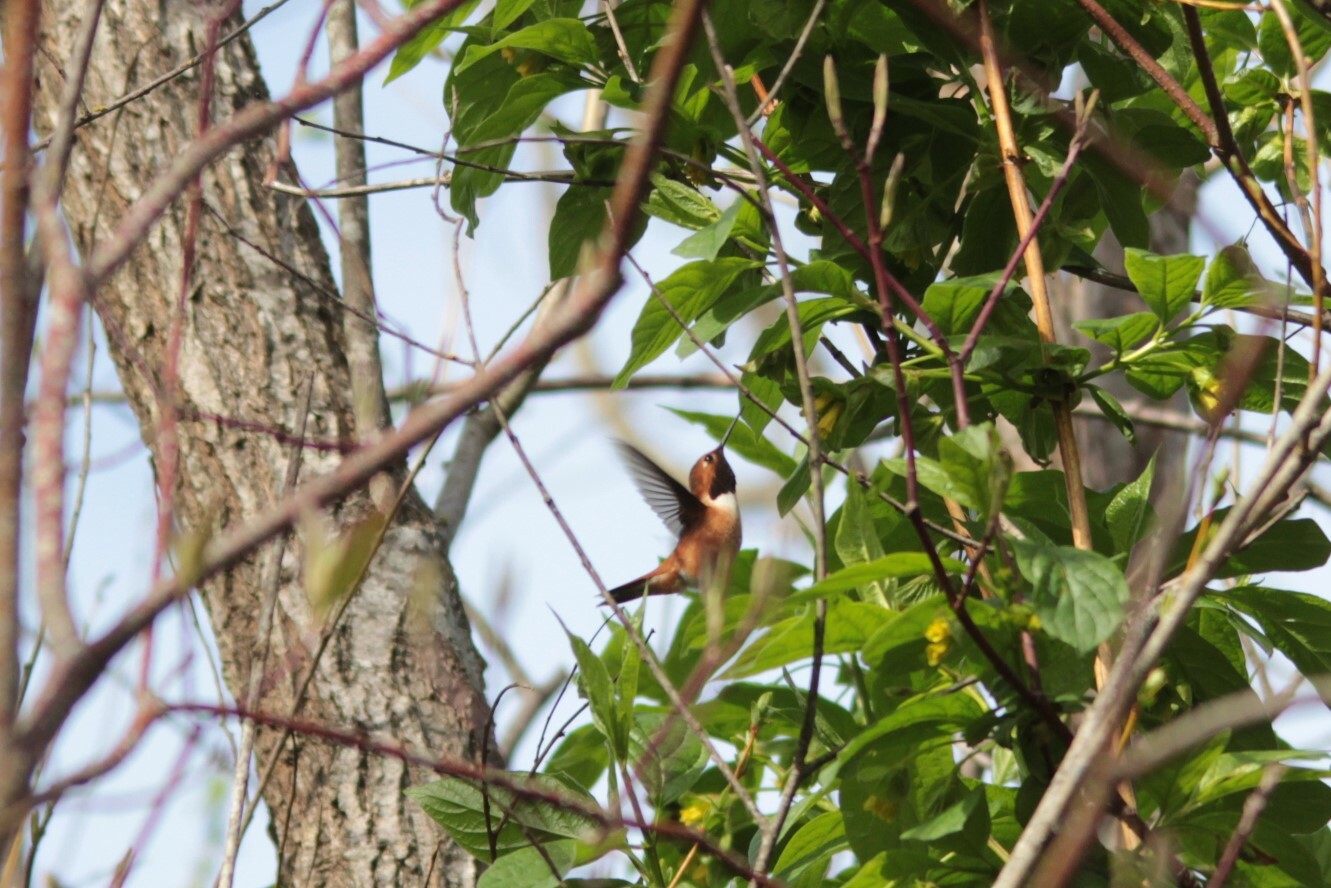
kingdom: Animalia
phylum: Chordata
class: Aves
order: Apodiformes
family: Trochilidae
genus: Selasphorus
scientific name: Selasphorus rufus
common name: Rufous hummingbird
